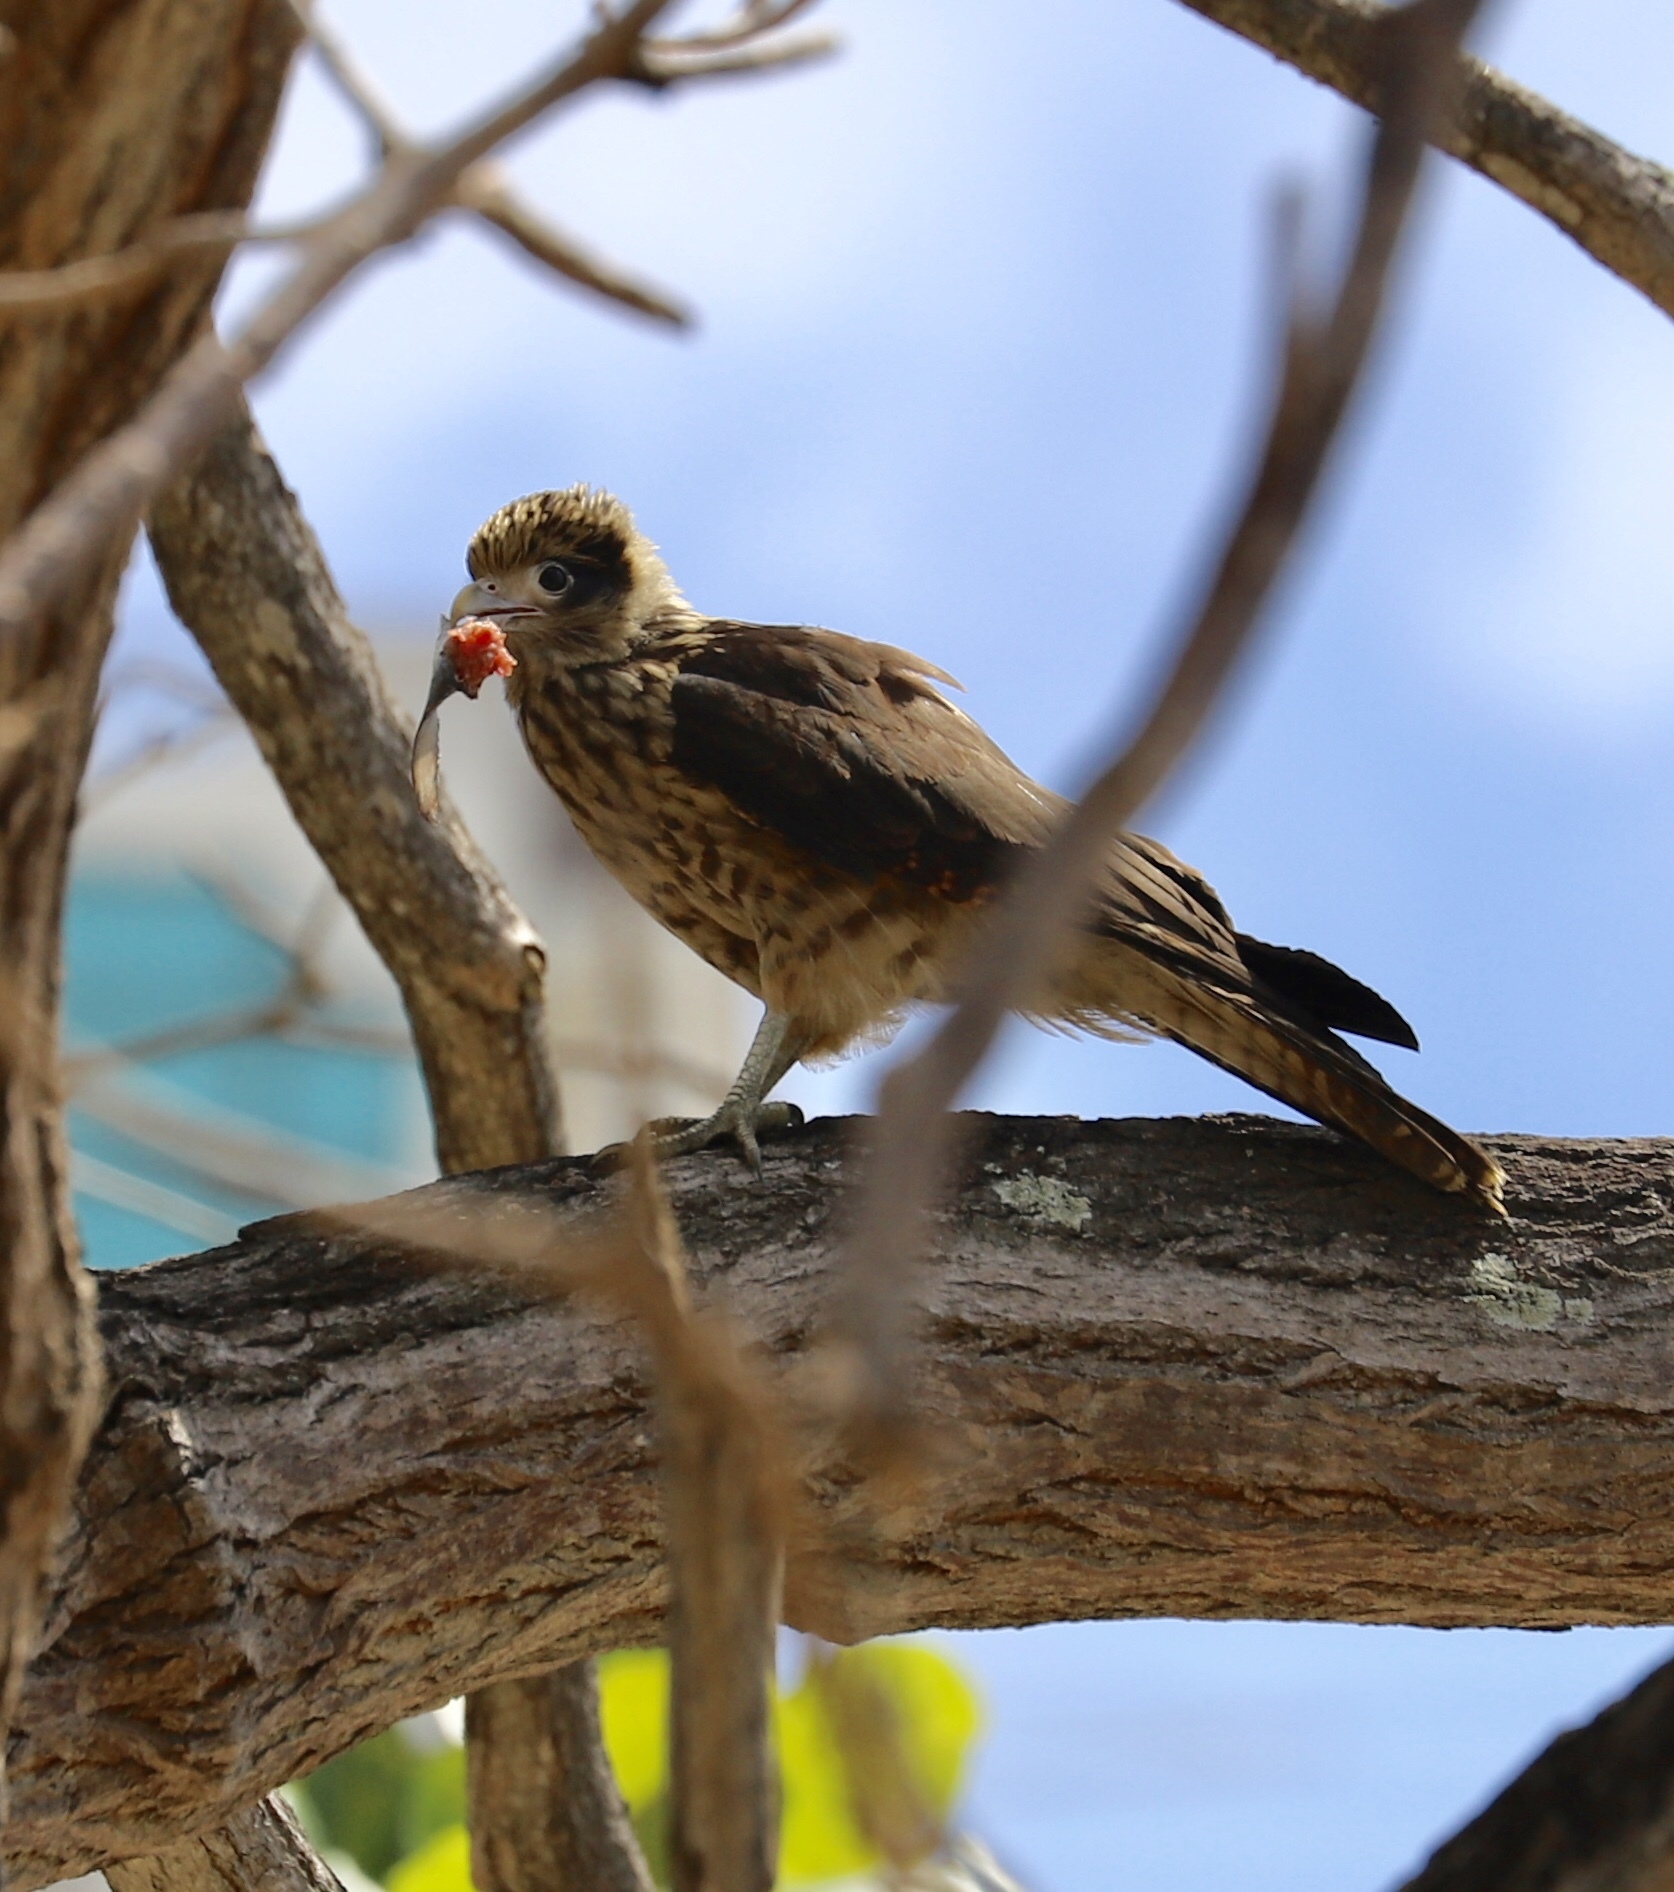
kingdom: Animalia
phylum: Chordata
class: Aves
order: Falconiformes
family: Falconidae
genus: Daptrius
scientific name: Daptrius
